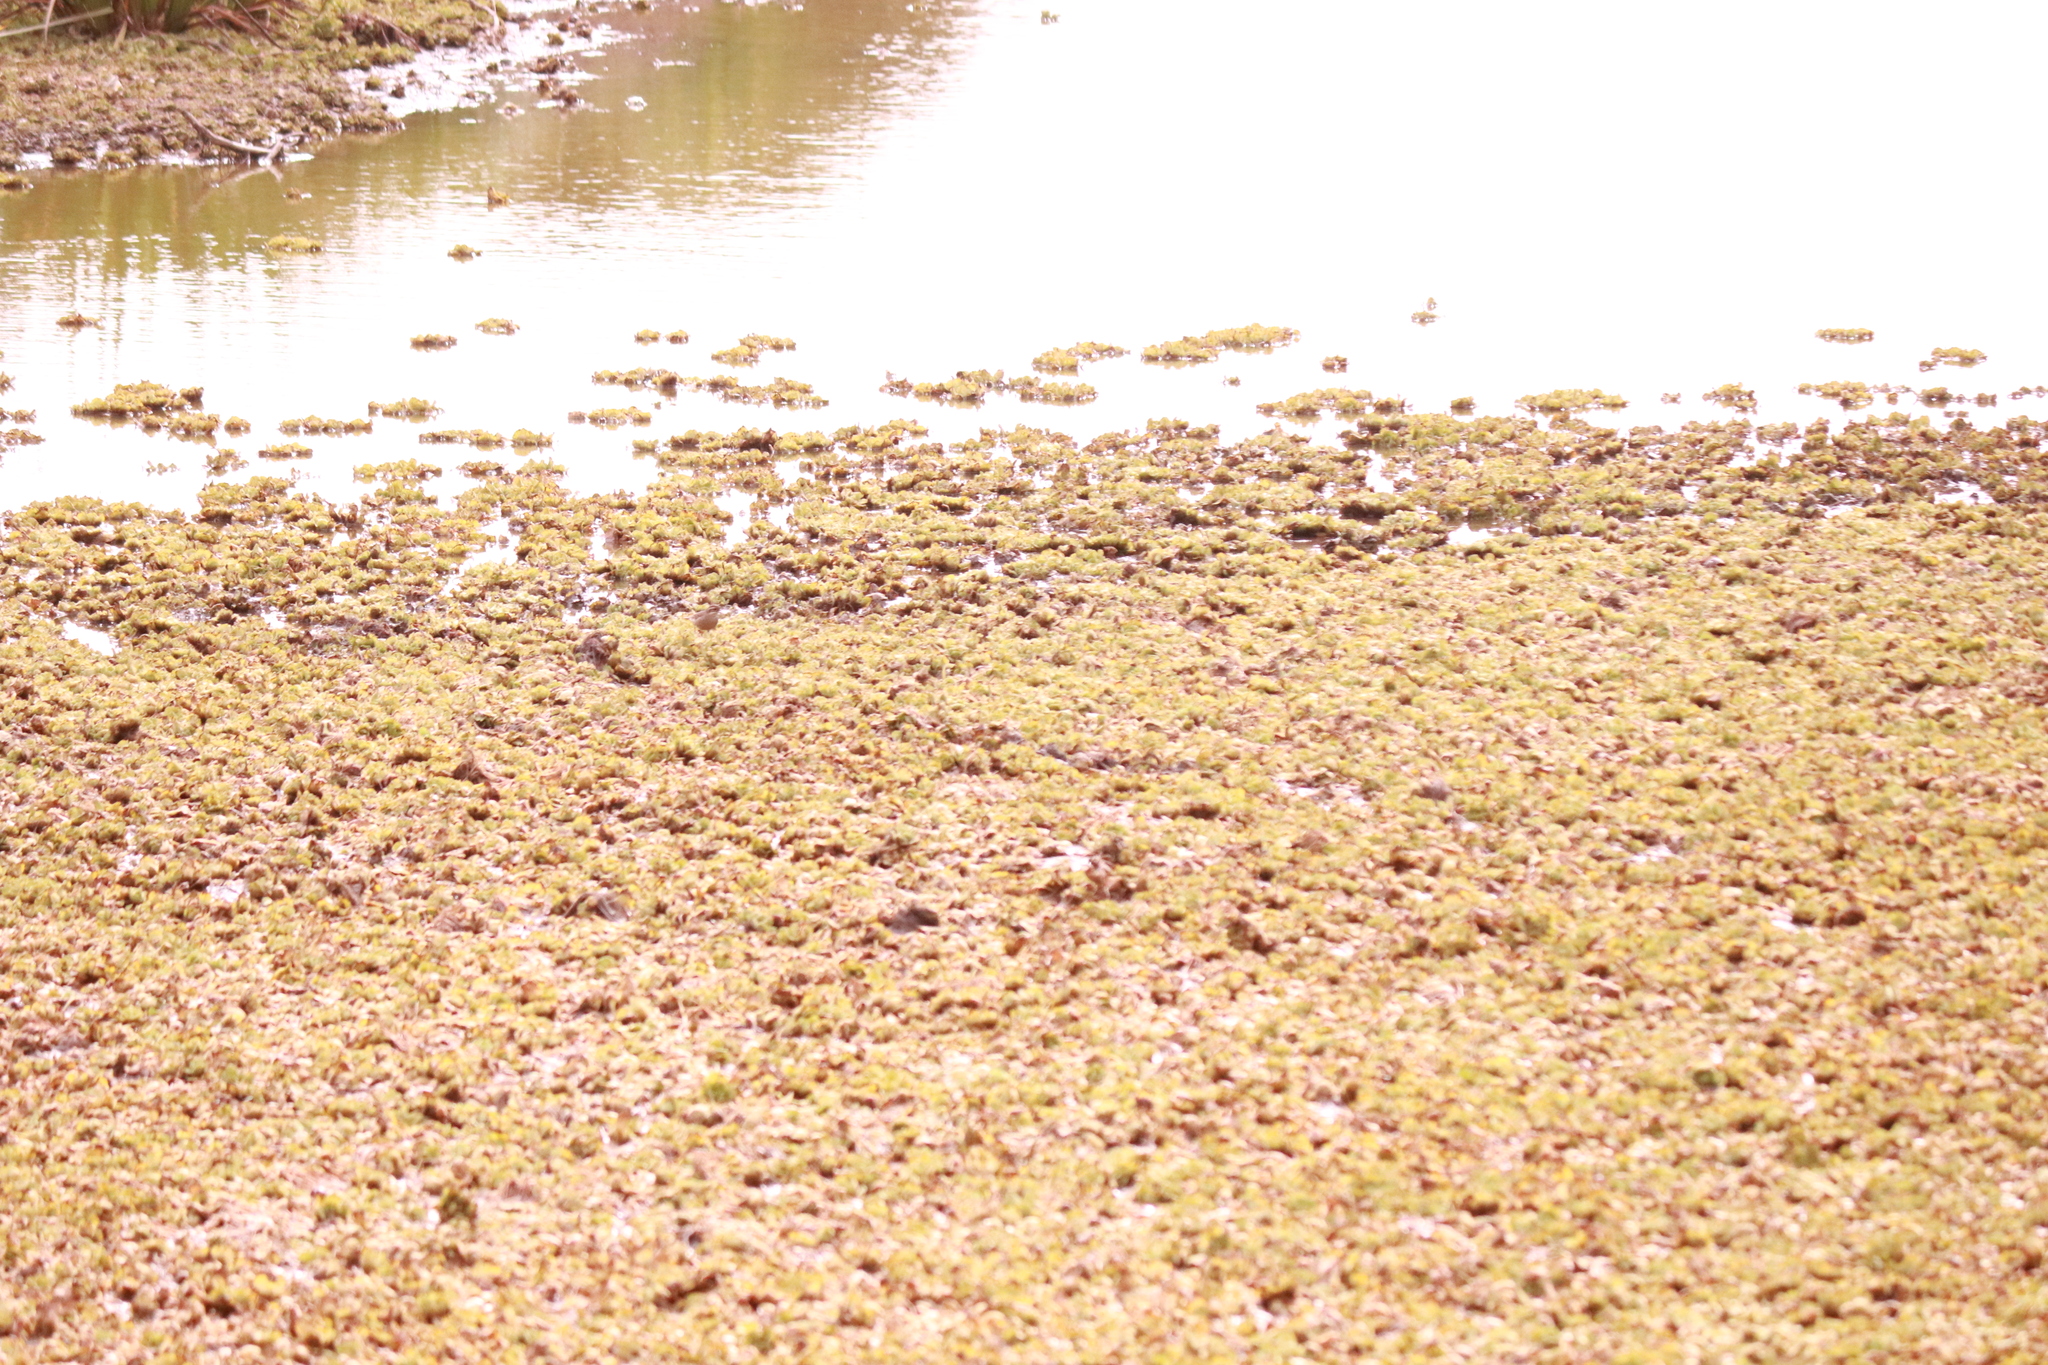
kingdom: Animalia
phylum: Chordata
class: Aves
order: Passeriformes
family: Furnariidae
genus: Cinclodes
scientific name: Cinclodes fuscus
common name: Buff-winged cinclodes
